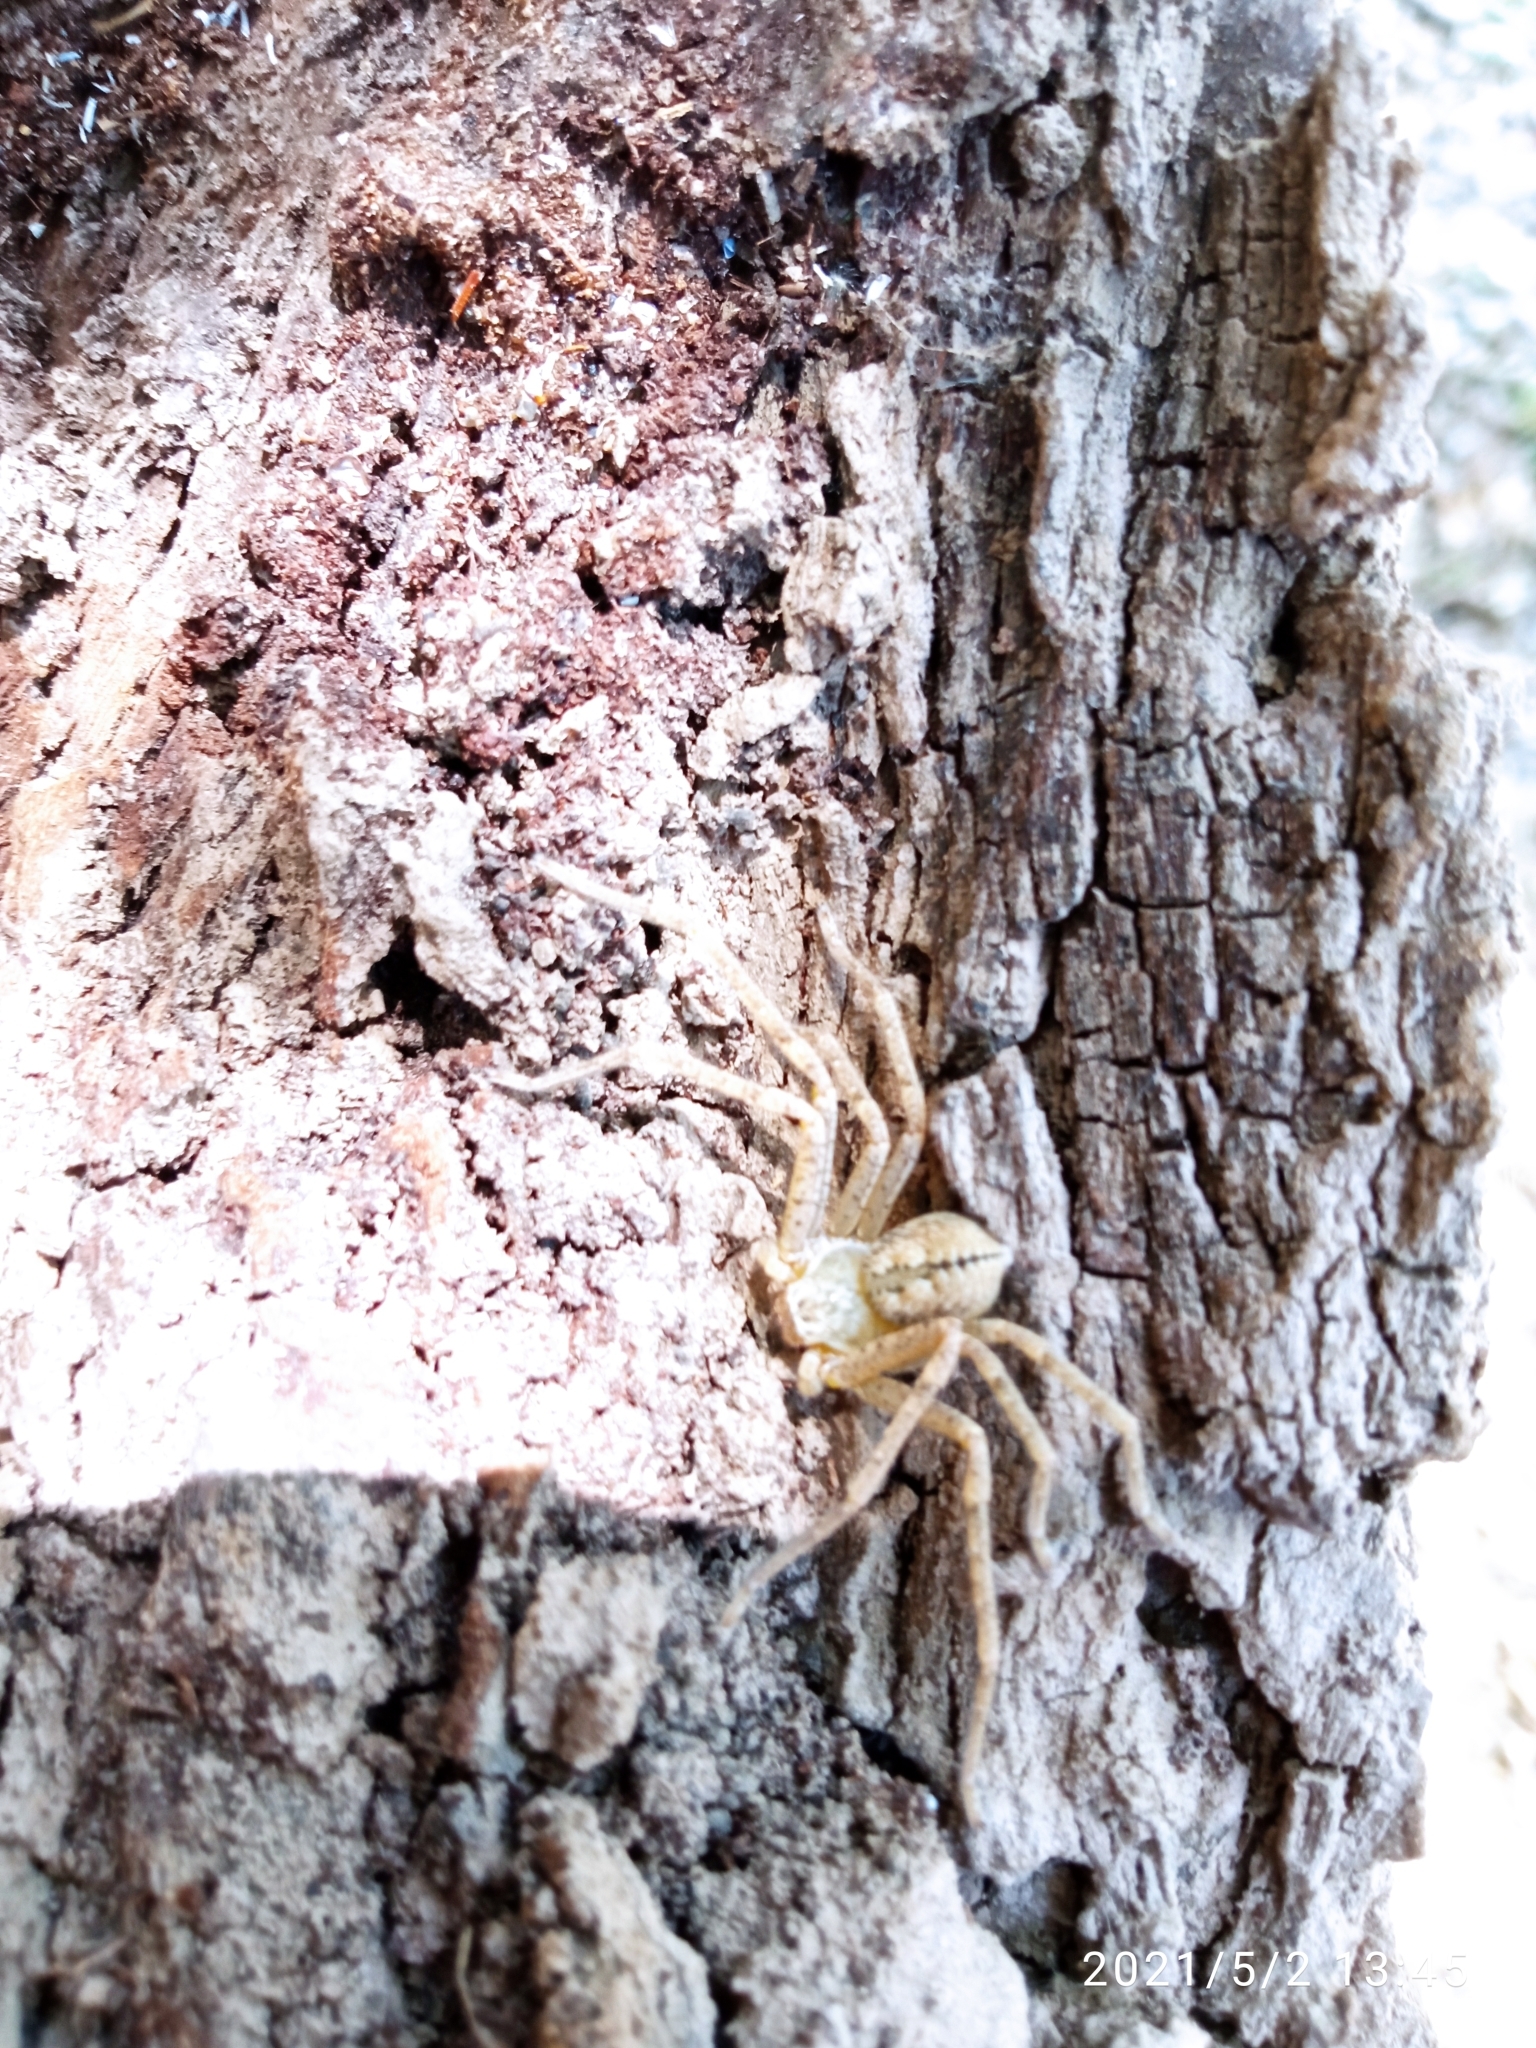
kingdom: Animalia
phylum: Arthropoda
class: Arachnida
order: Araneae
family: Sparassidae
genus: Curicaberis
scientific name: Curicaberis
